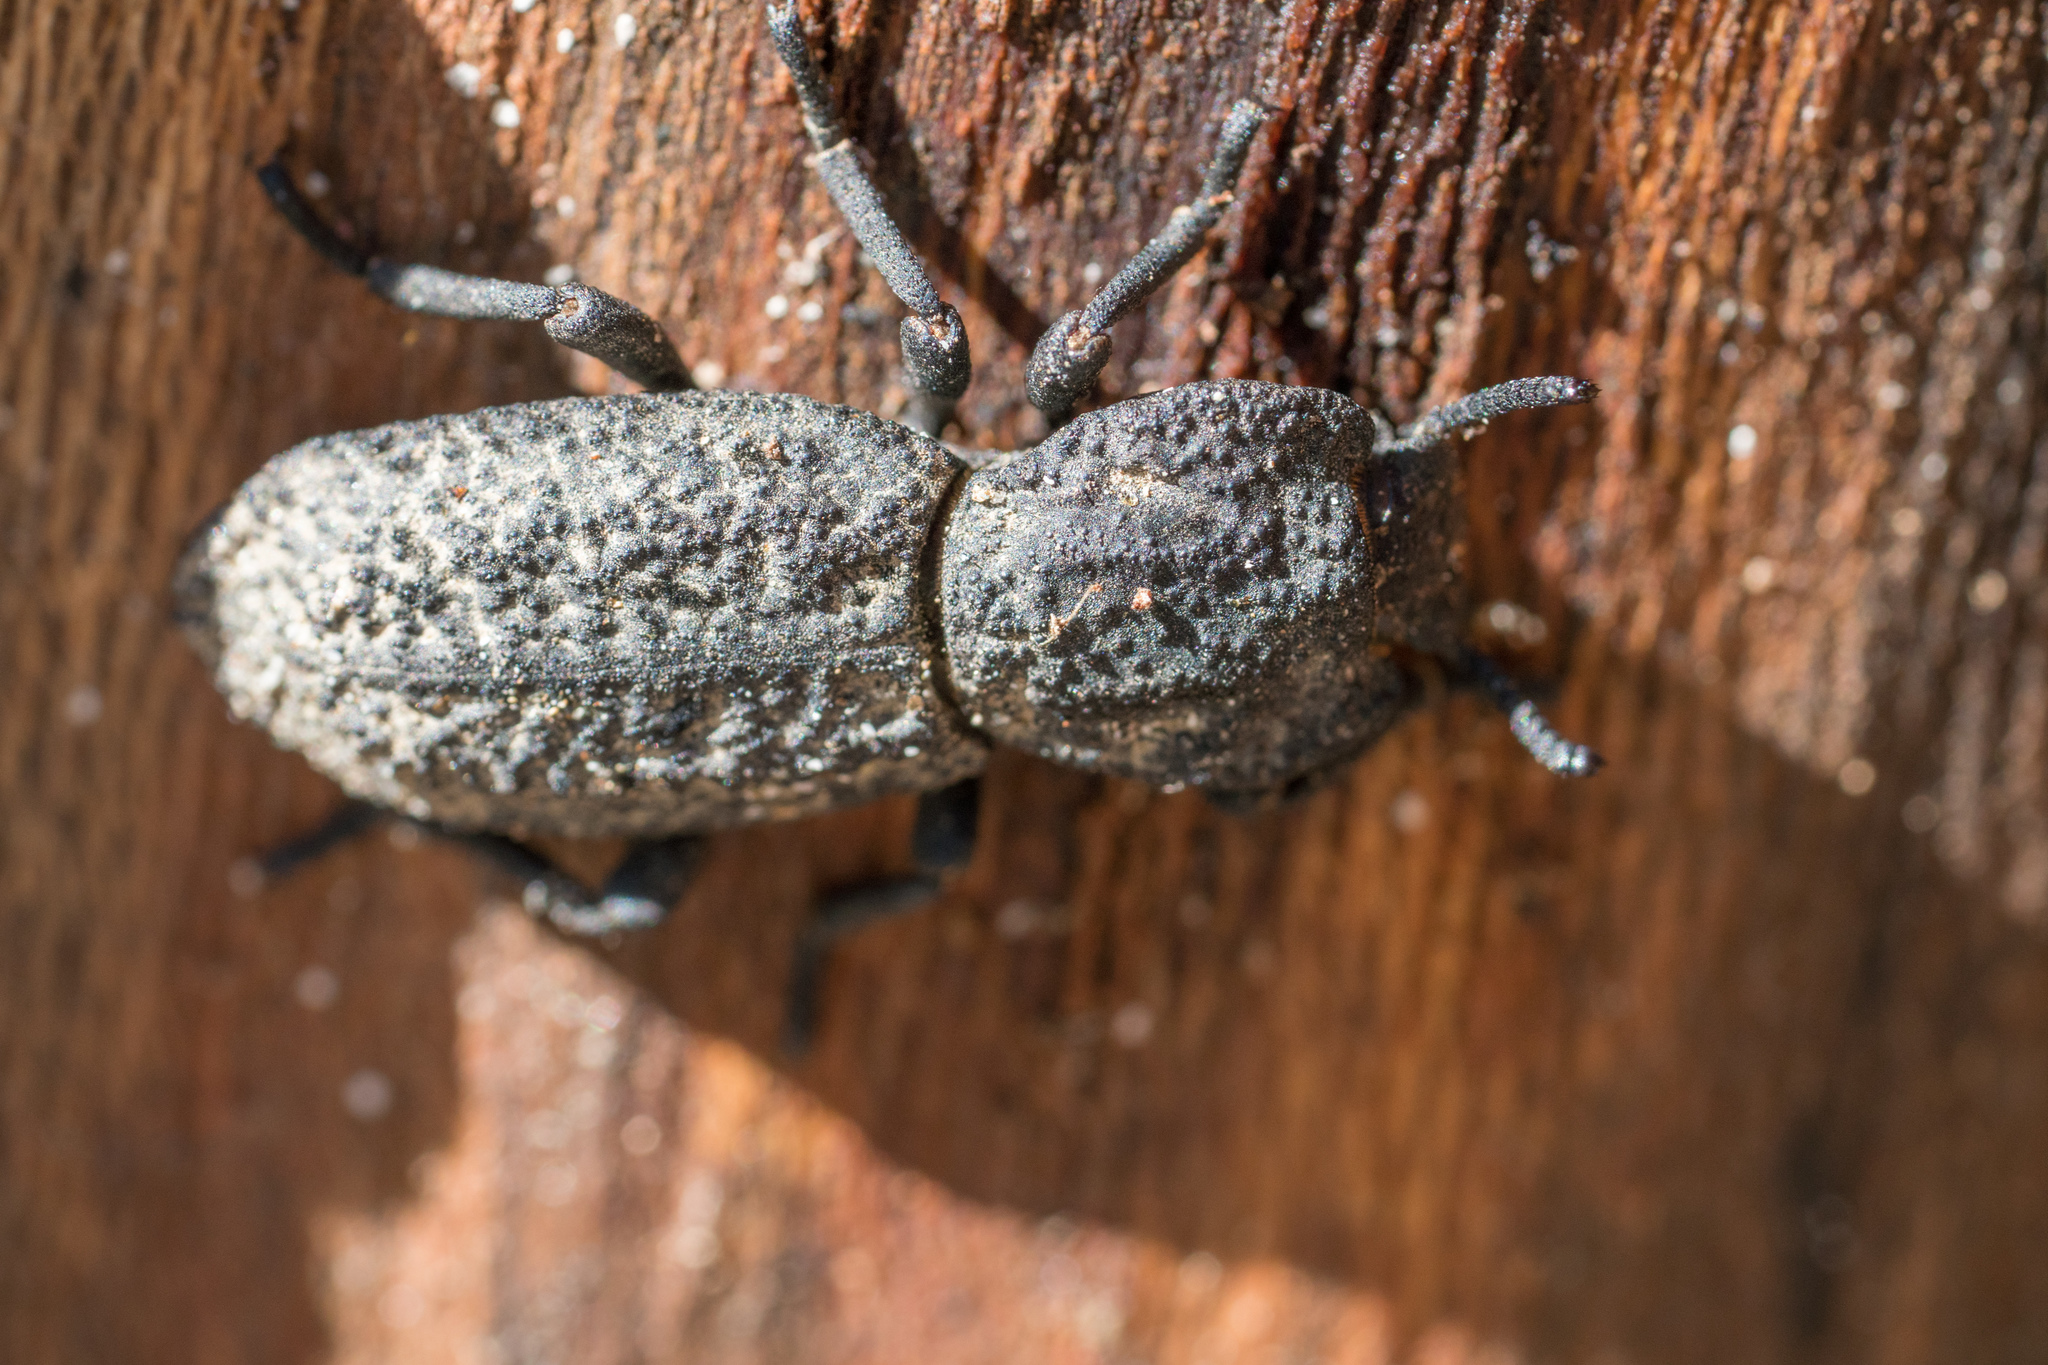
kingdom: Animalia
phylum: Arthropoda
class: Insecta
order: Coleoptera
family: Zopheridae
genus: Phloeodes
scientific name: Phloeodes diabolicus
